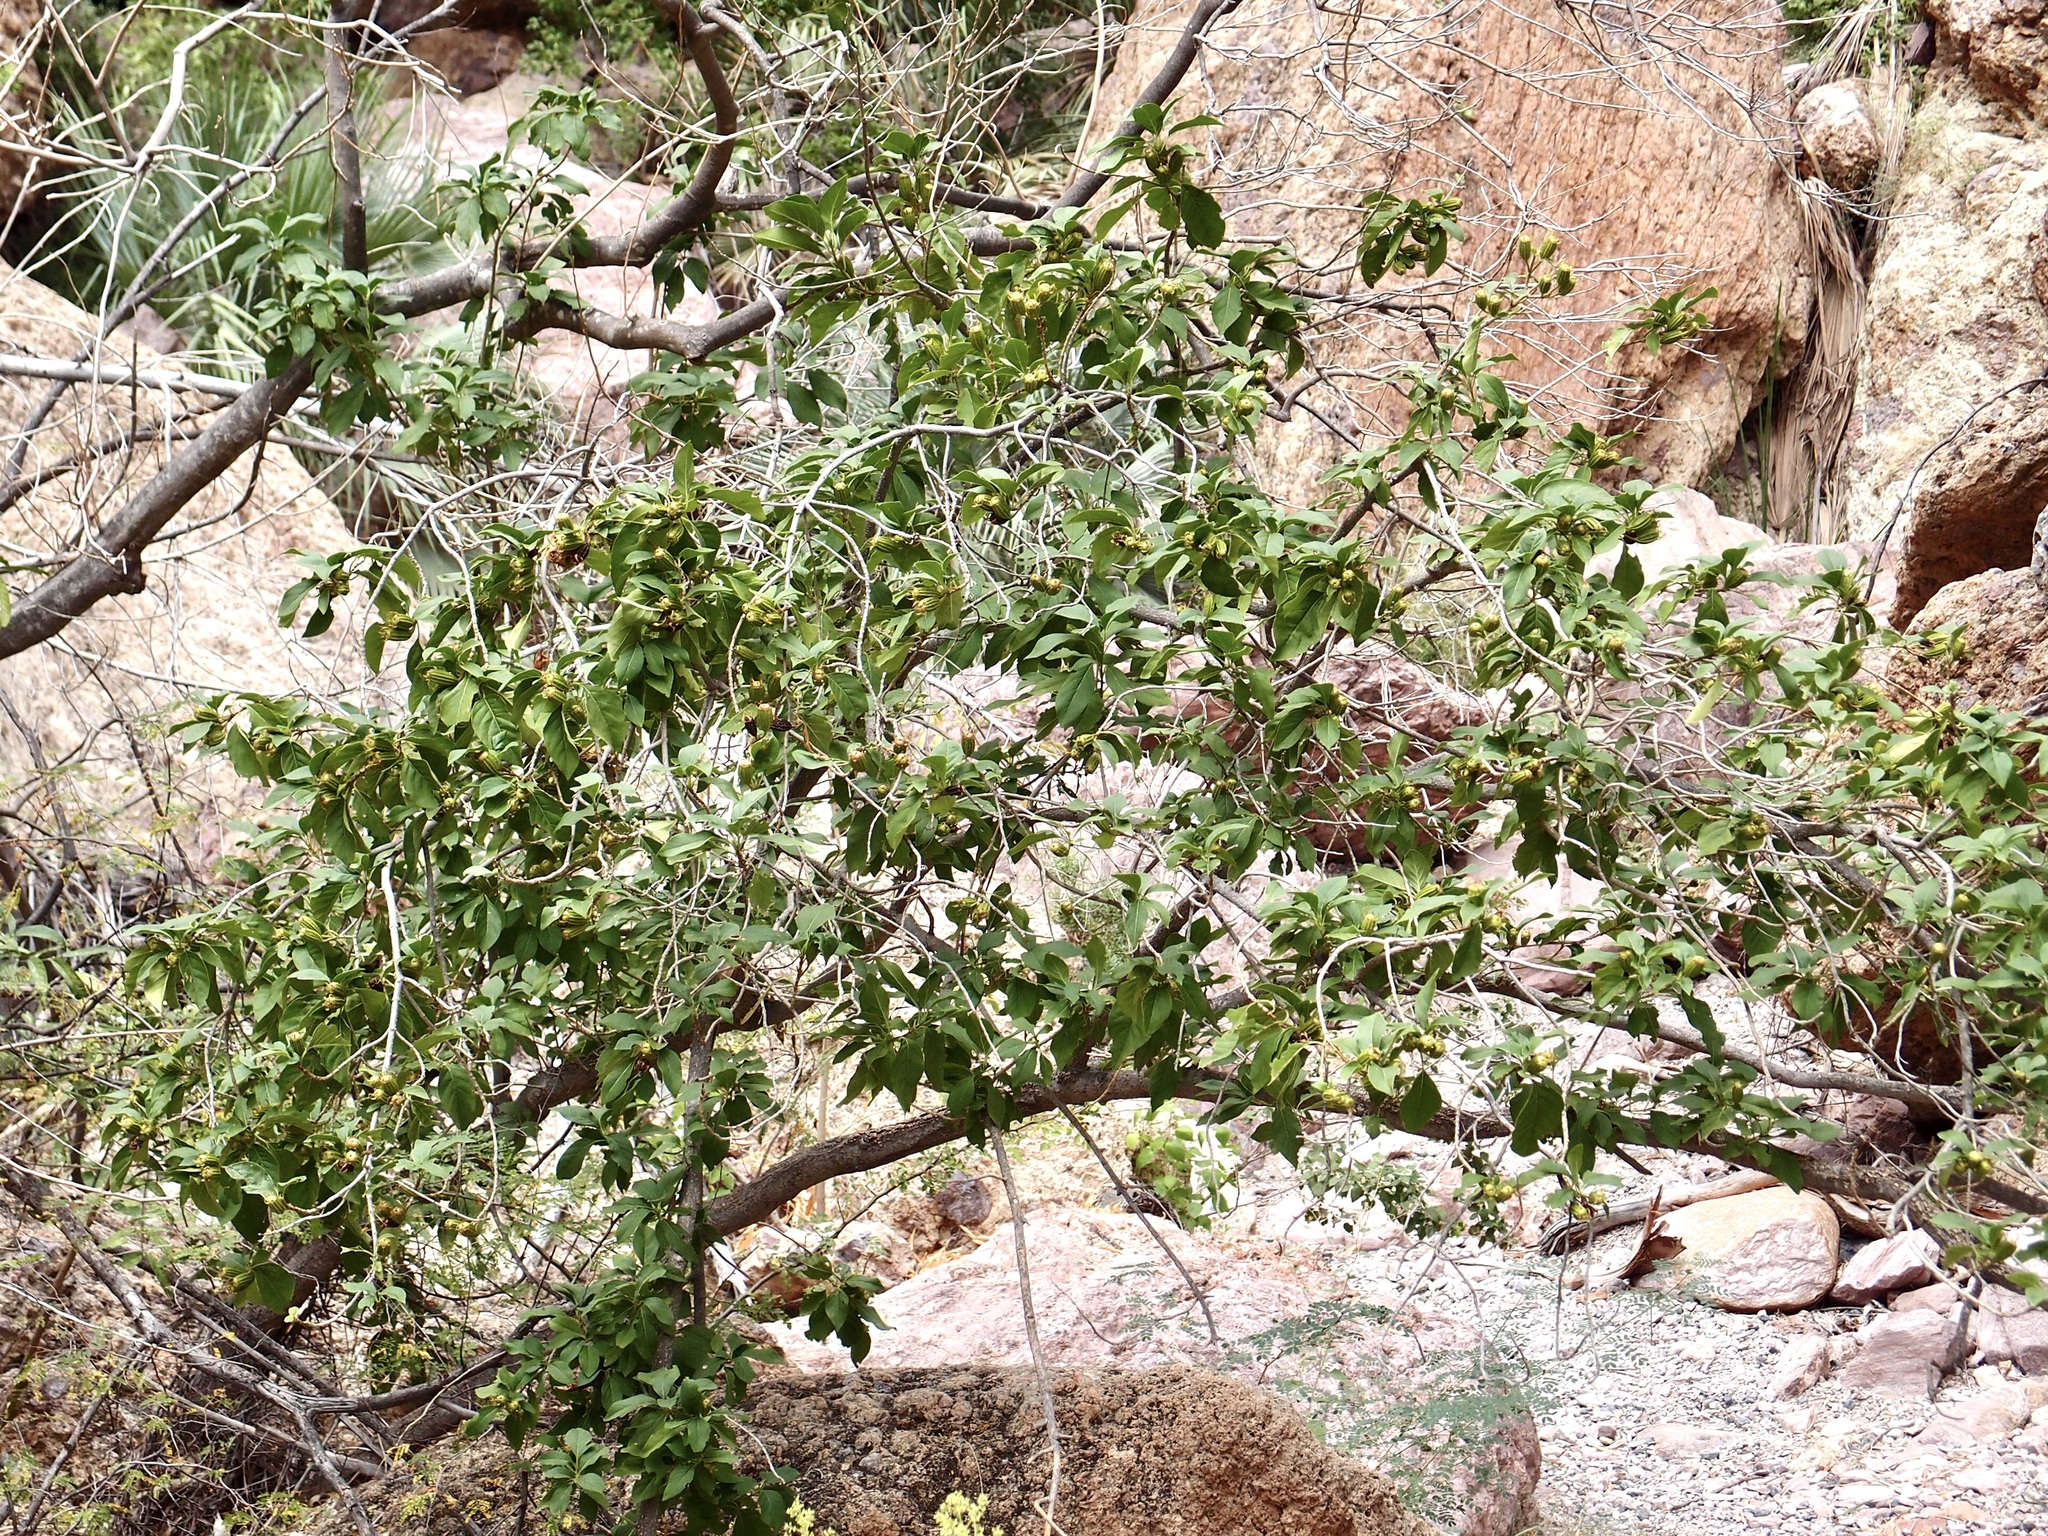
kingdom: Plantae
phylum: Tracheophyta
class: Magnoliopsida
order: Gentianales
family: Rubiaceae
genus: Hintonia
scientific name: Hintonia latiflora
